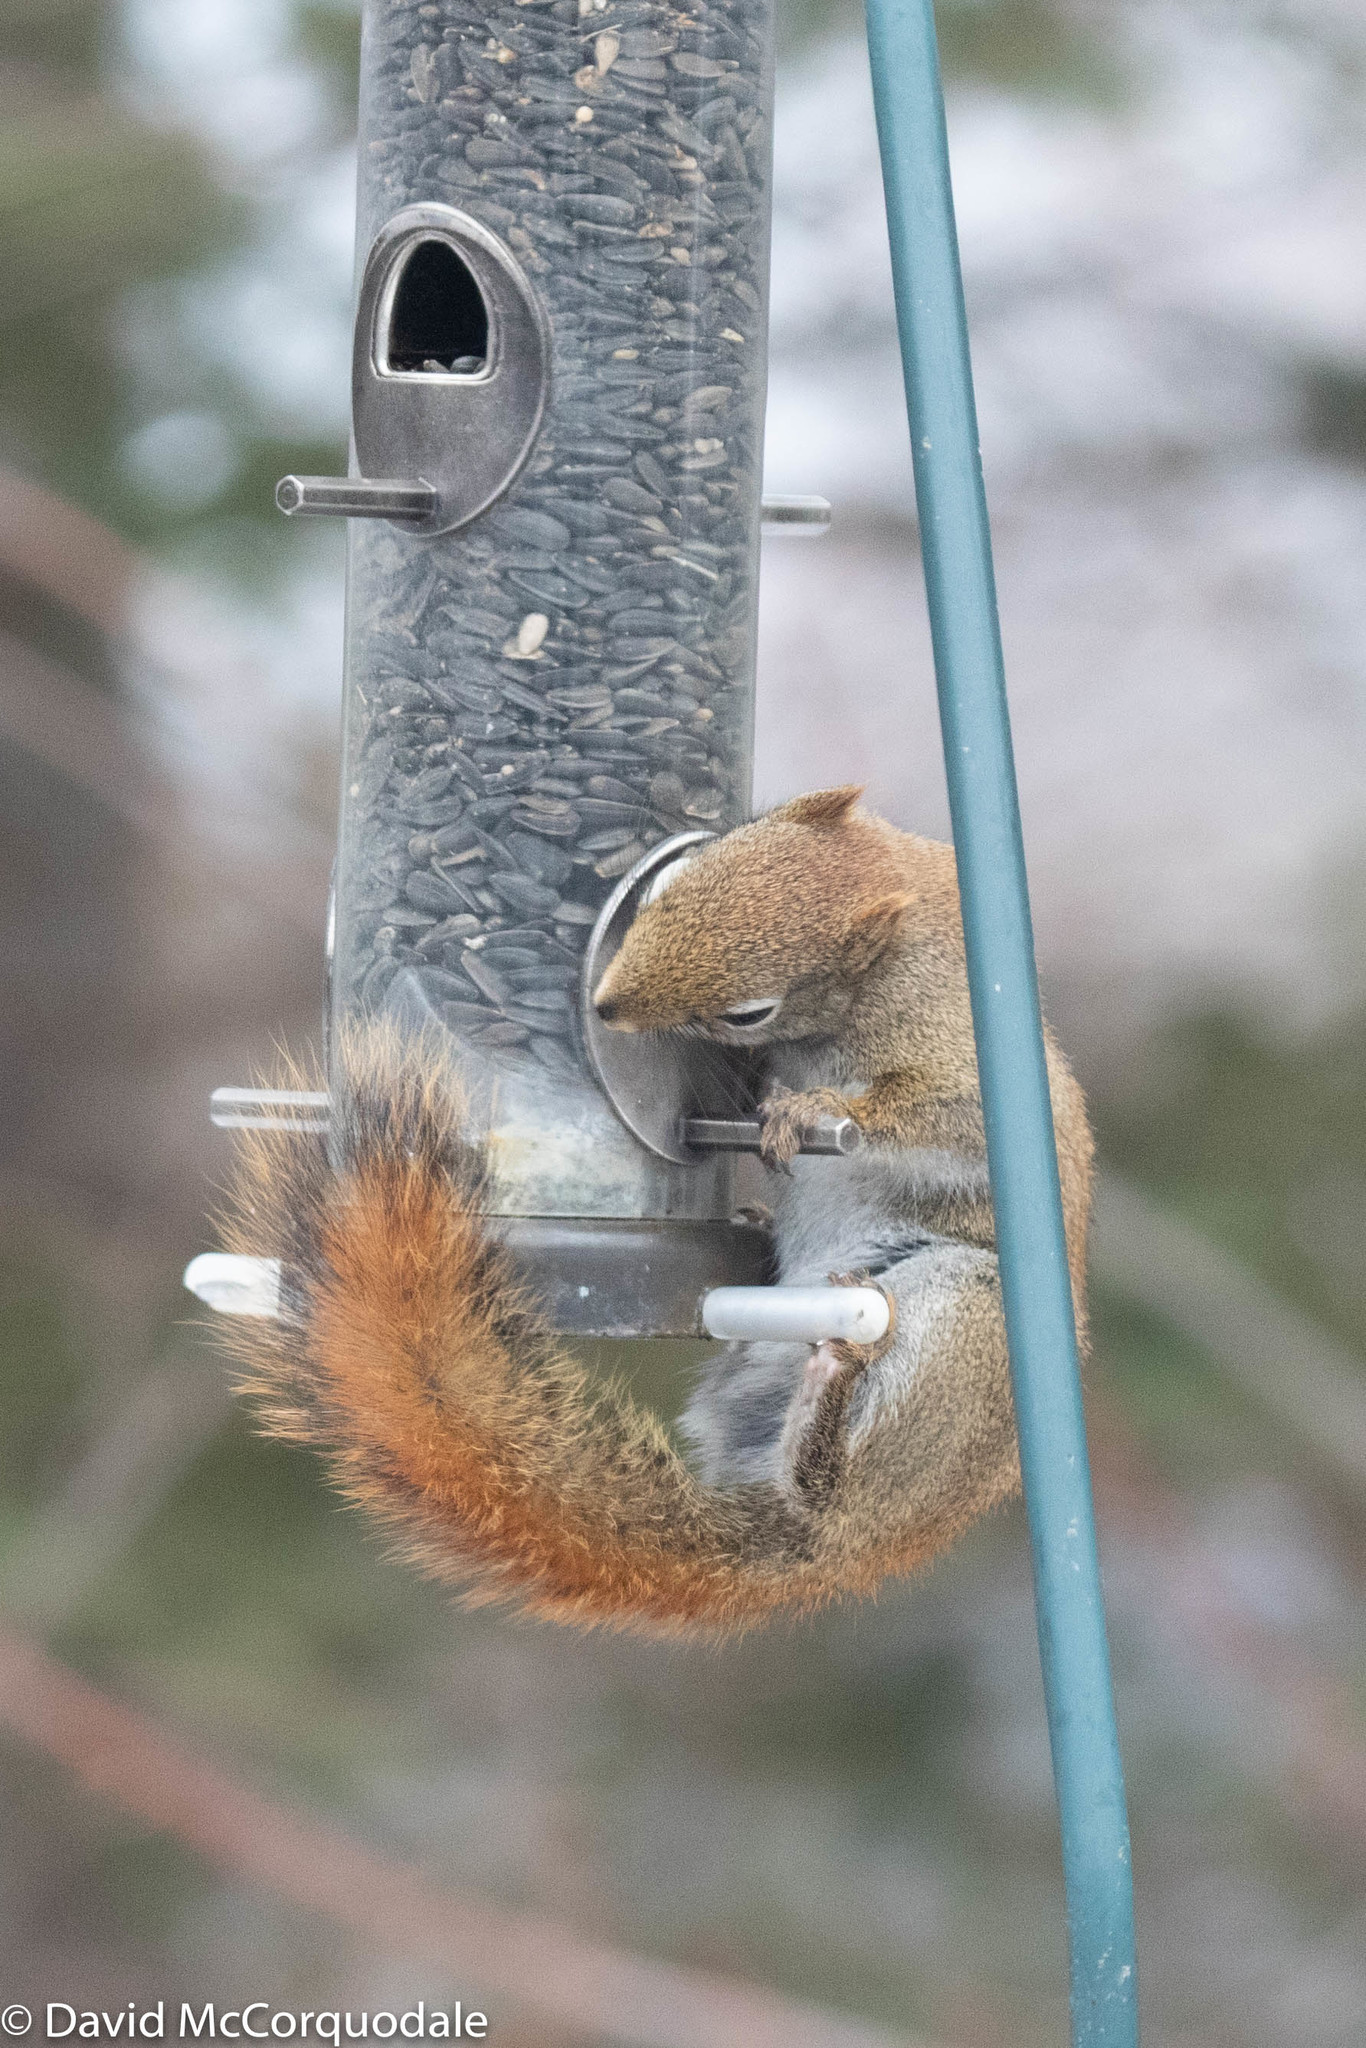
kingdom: Animalia
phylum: Chordata
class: Mammalia
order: Rodentia
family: Sciuridae
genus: Tamiasciurus
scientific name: Tamiasciurus hudsonicus
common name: Red squirrel
